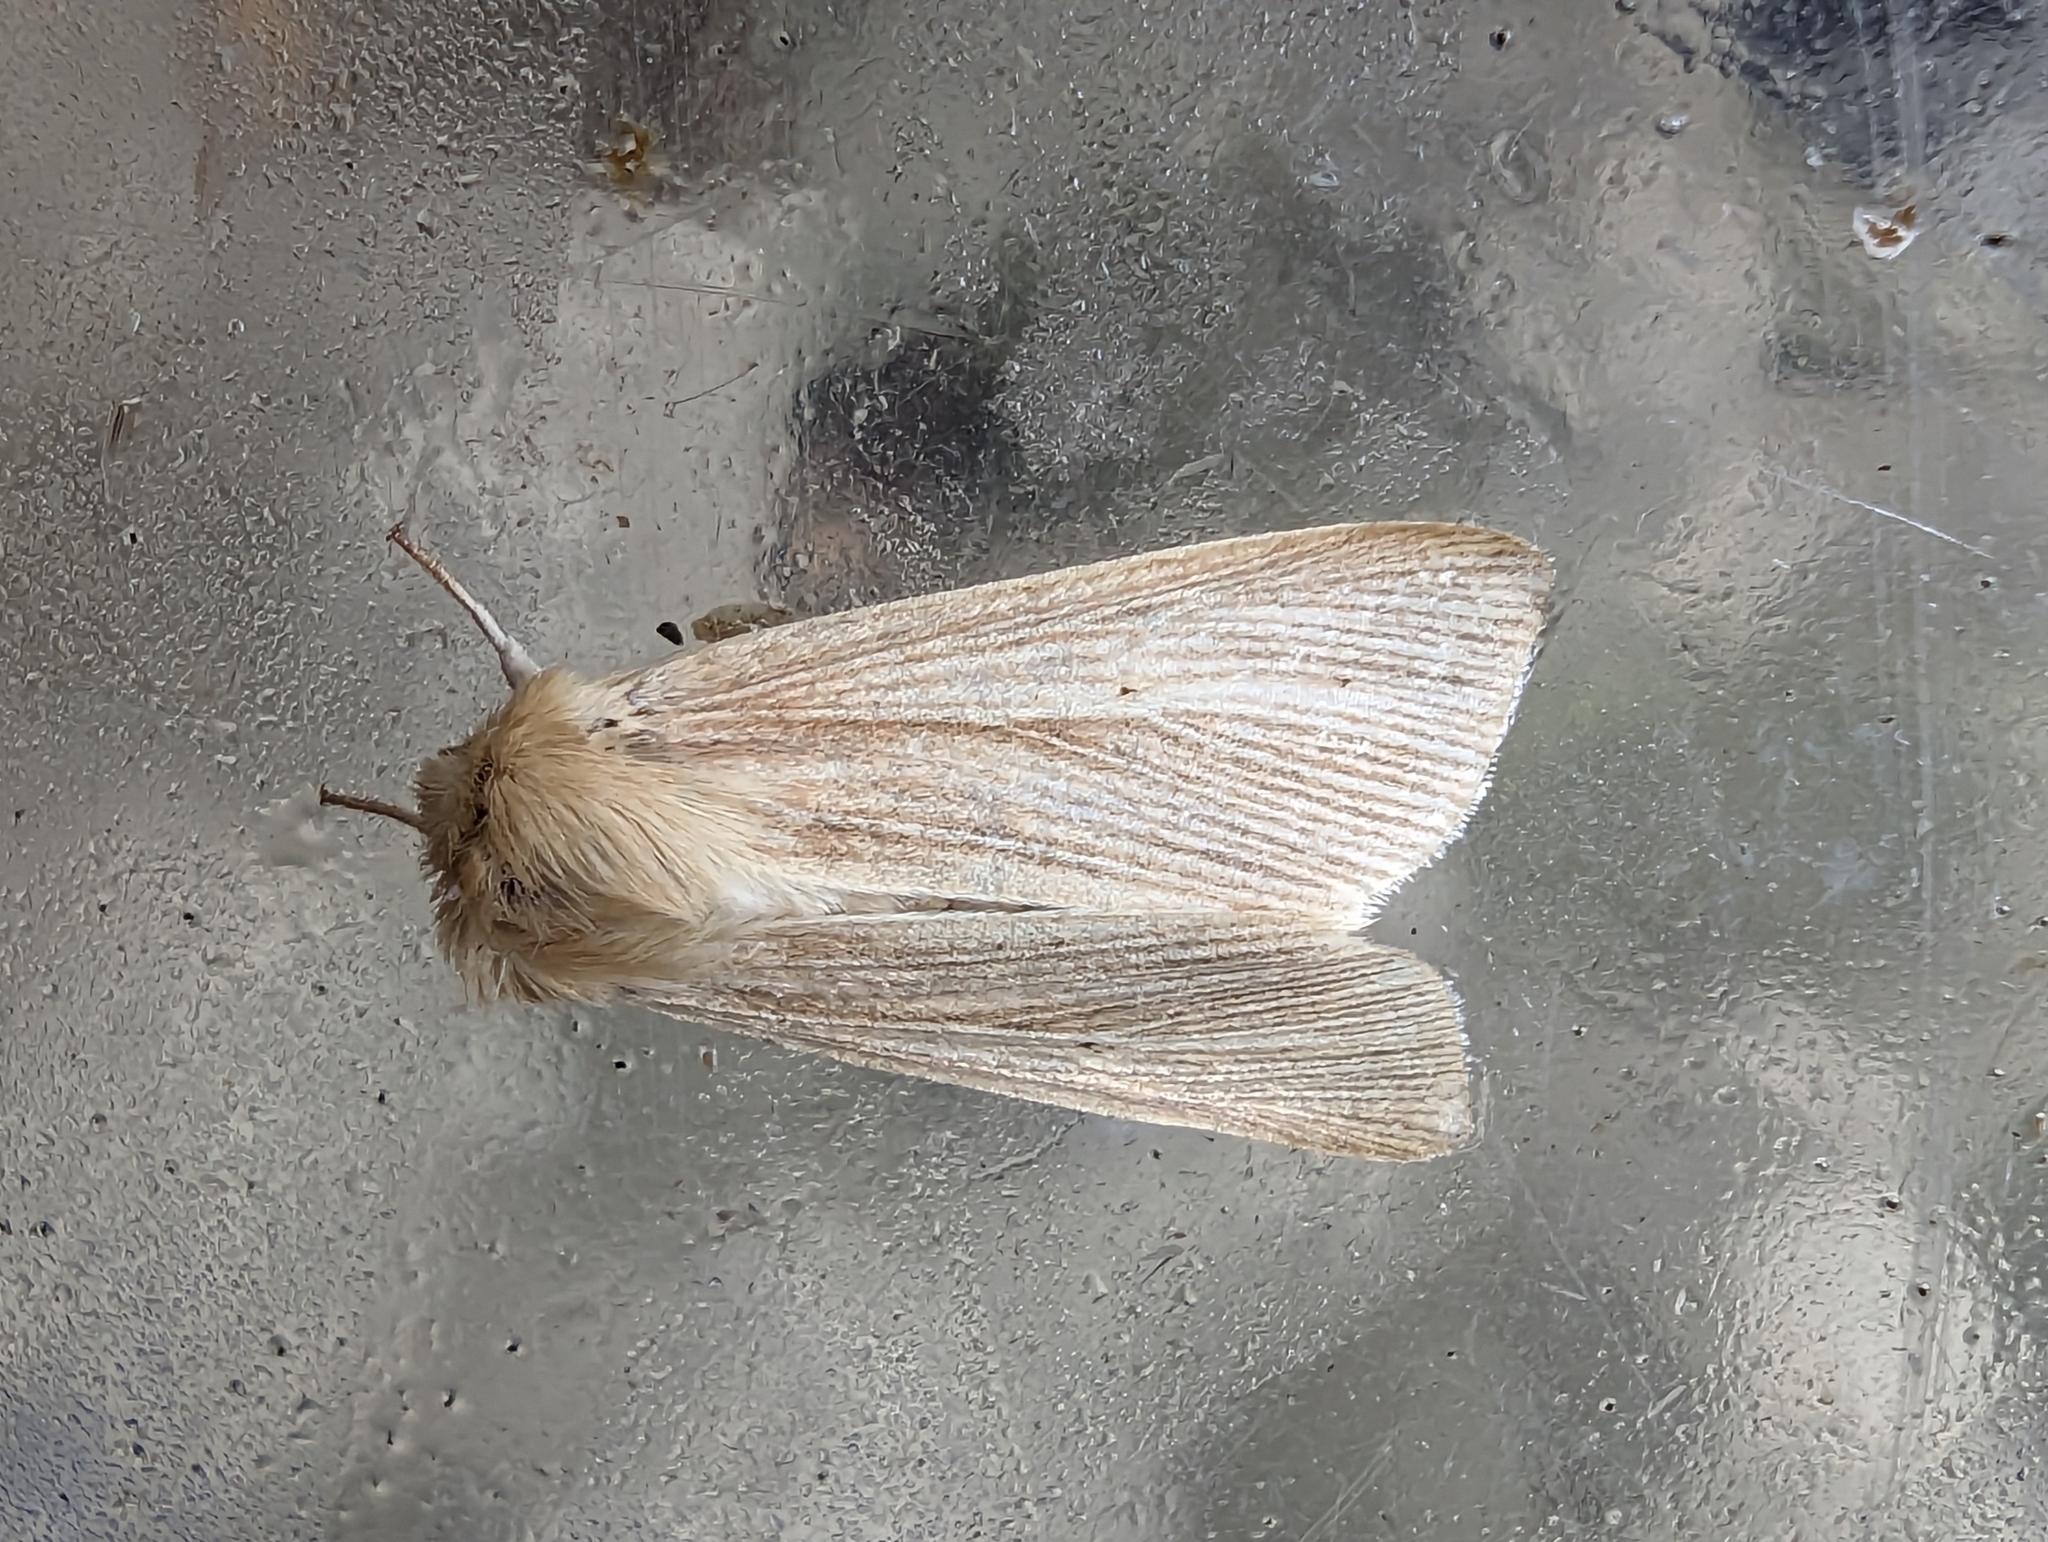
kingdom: Animalia
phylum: Arthropoda
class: Insecta
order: Lepidoptera
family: Noctuidae
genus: Mythimna
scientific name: Mythimna pallens
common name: Common wainscot
